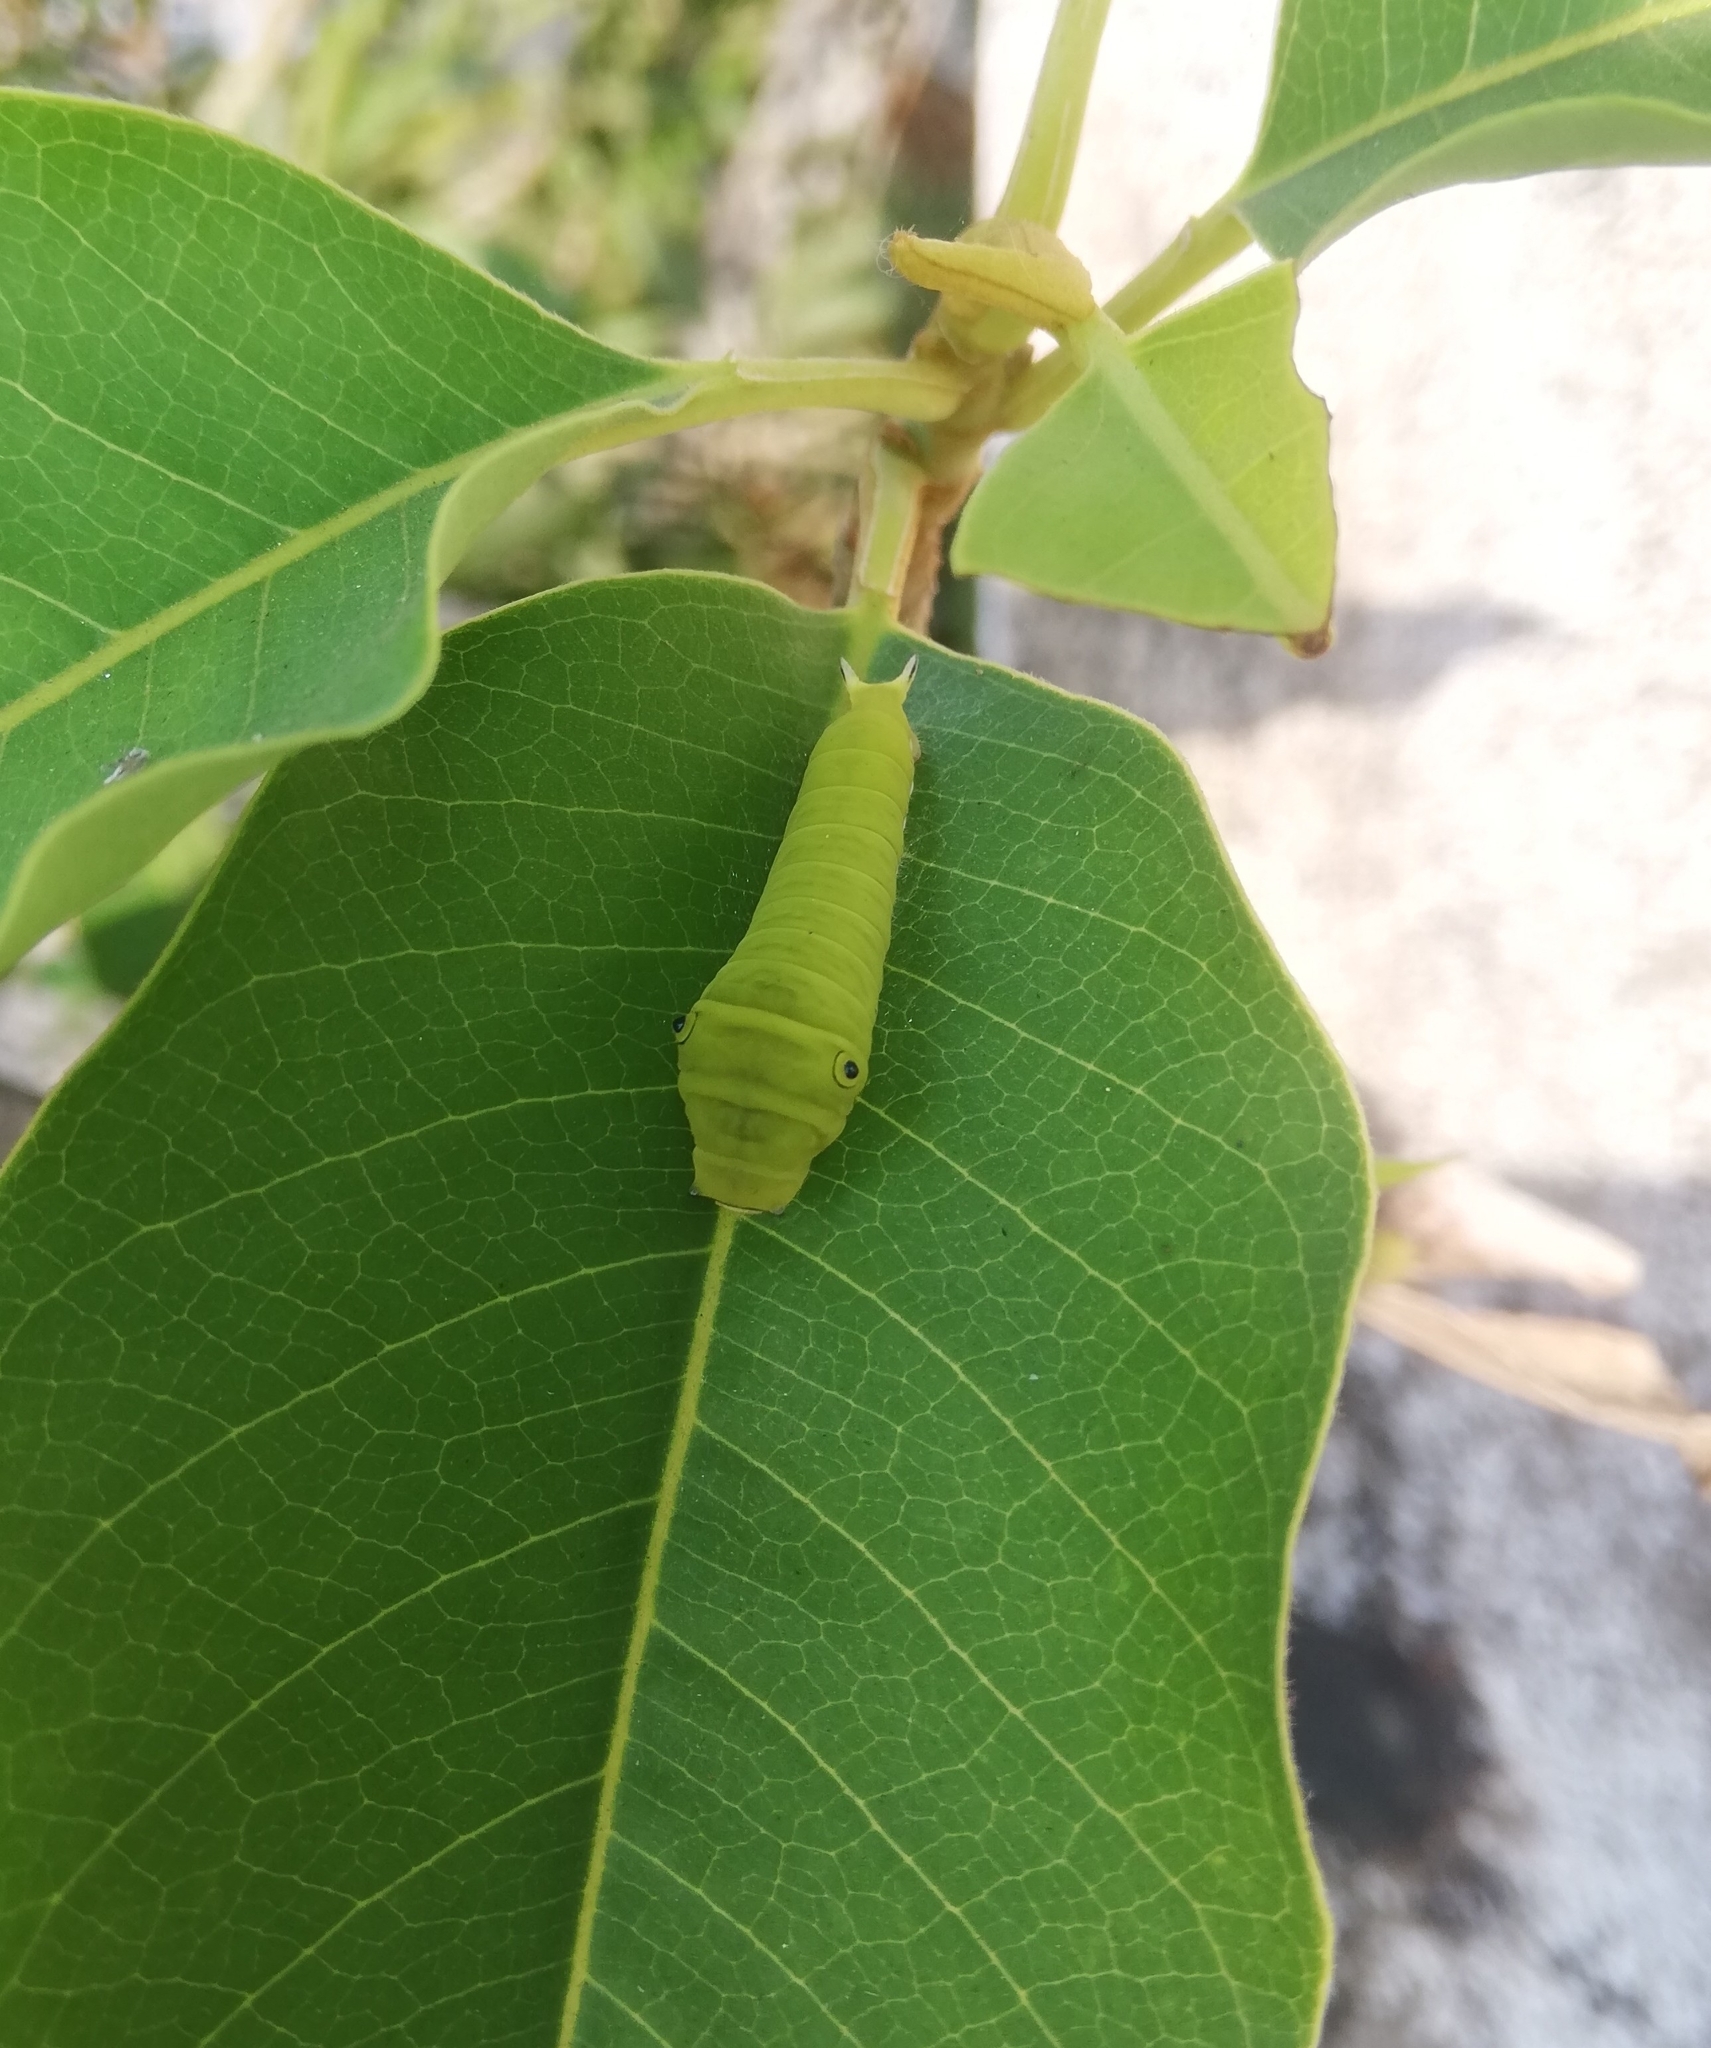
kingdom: Animalia
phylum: Arthropoda
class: Insecta
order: Lepidoptera
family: Papilionidae
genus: Graphium
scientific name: Graphium doson
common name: Common jay
